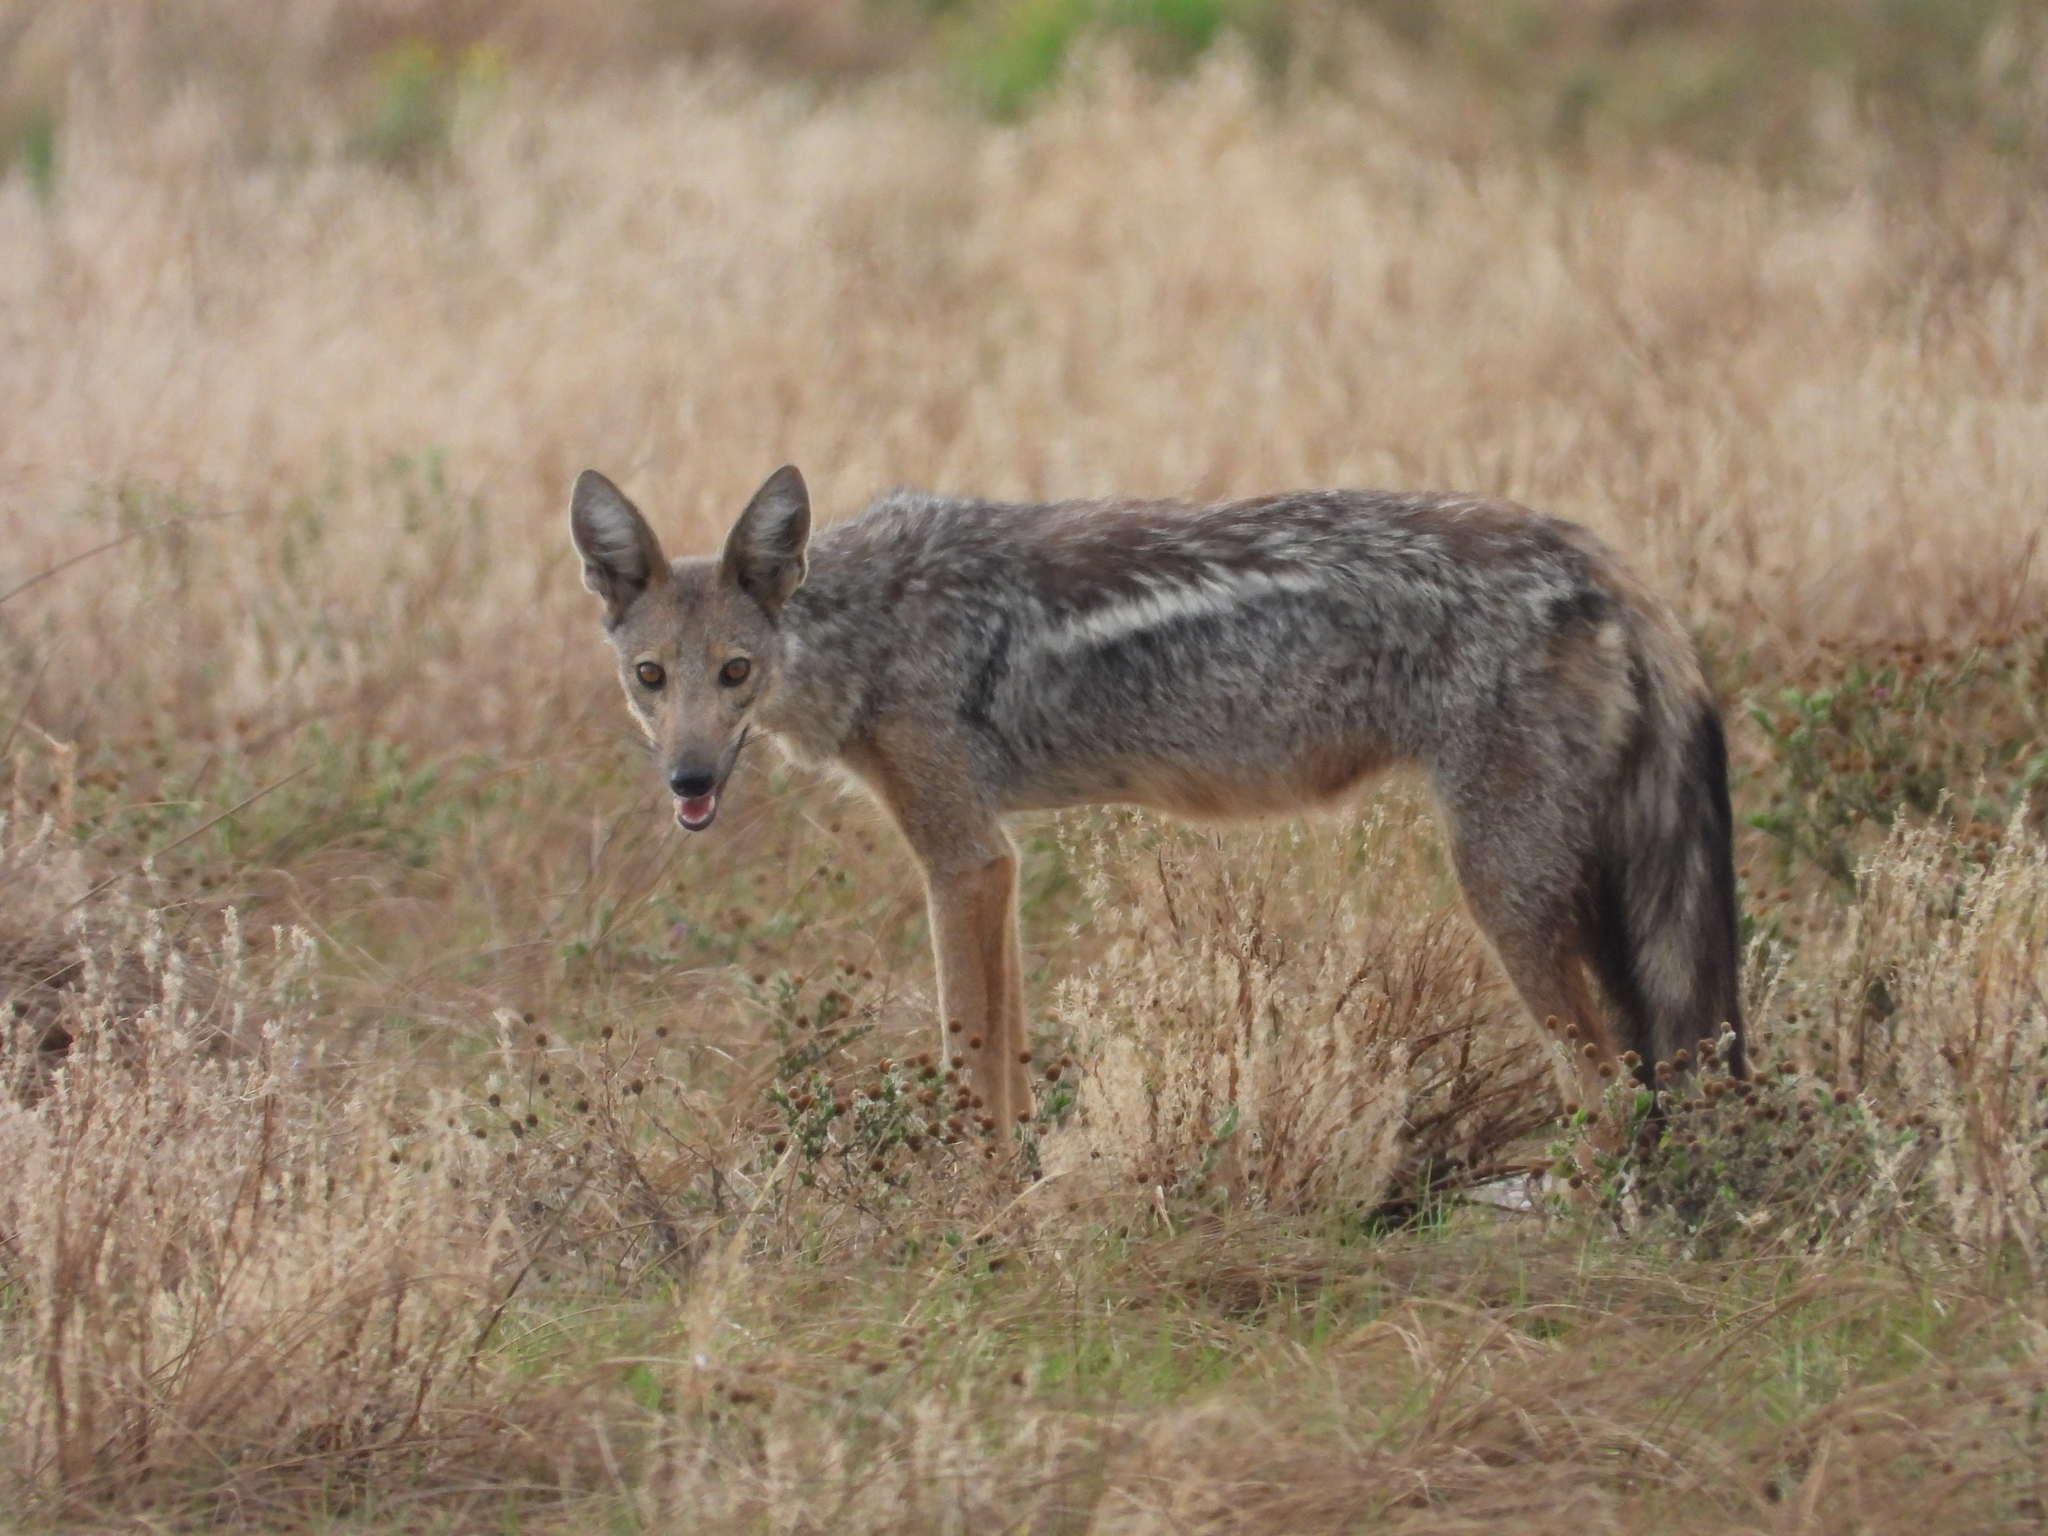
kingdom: Animalia
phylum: Chordata
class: Mammalia
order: Carnivora
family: Canidae
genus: Lupulella
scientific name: Lupulella
